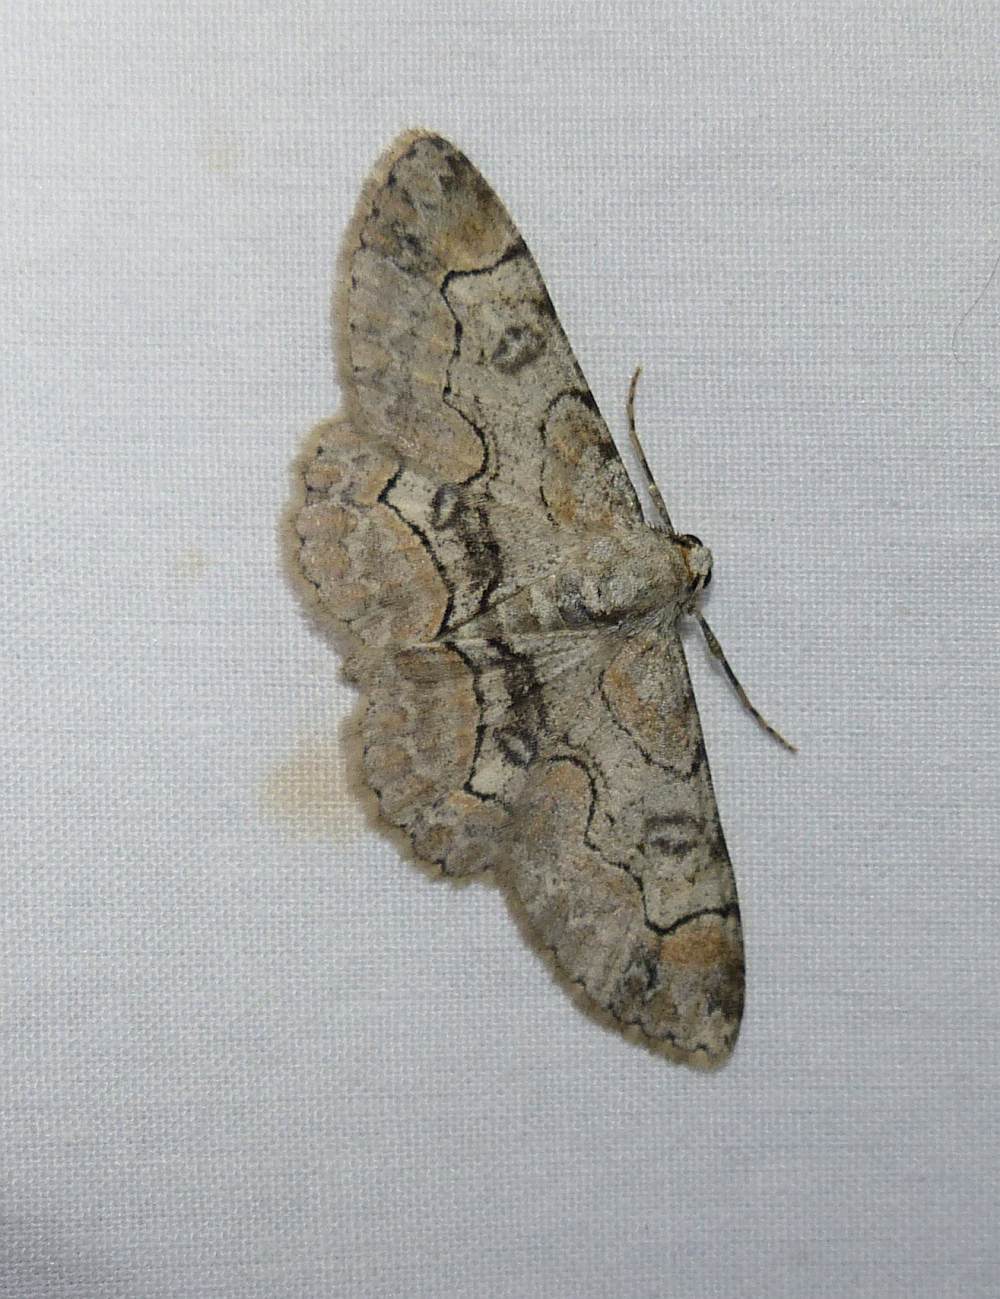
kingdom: Animalia
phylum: Arthropoda
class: Insecta
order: Lepidoptera
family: Geometridae
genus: Iridopsis
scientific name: Iridopsis larvaria
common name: Bent-line gray
